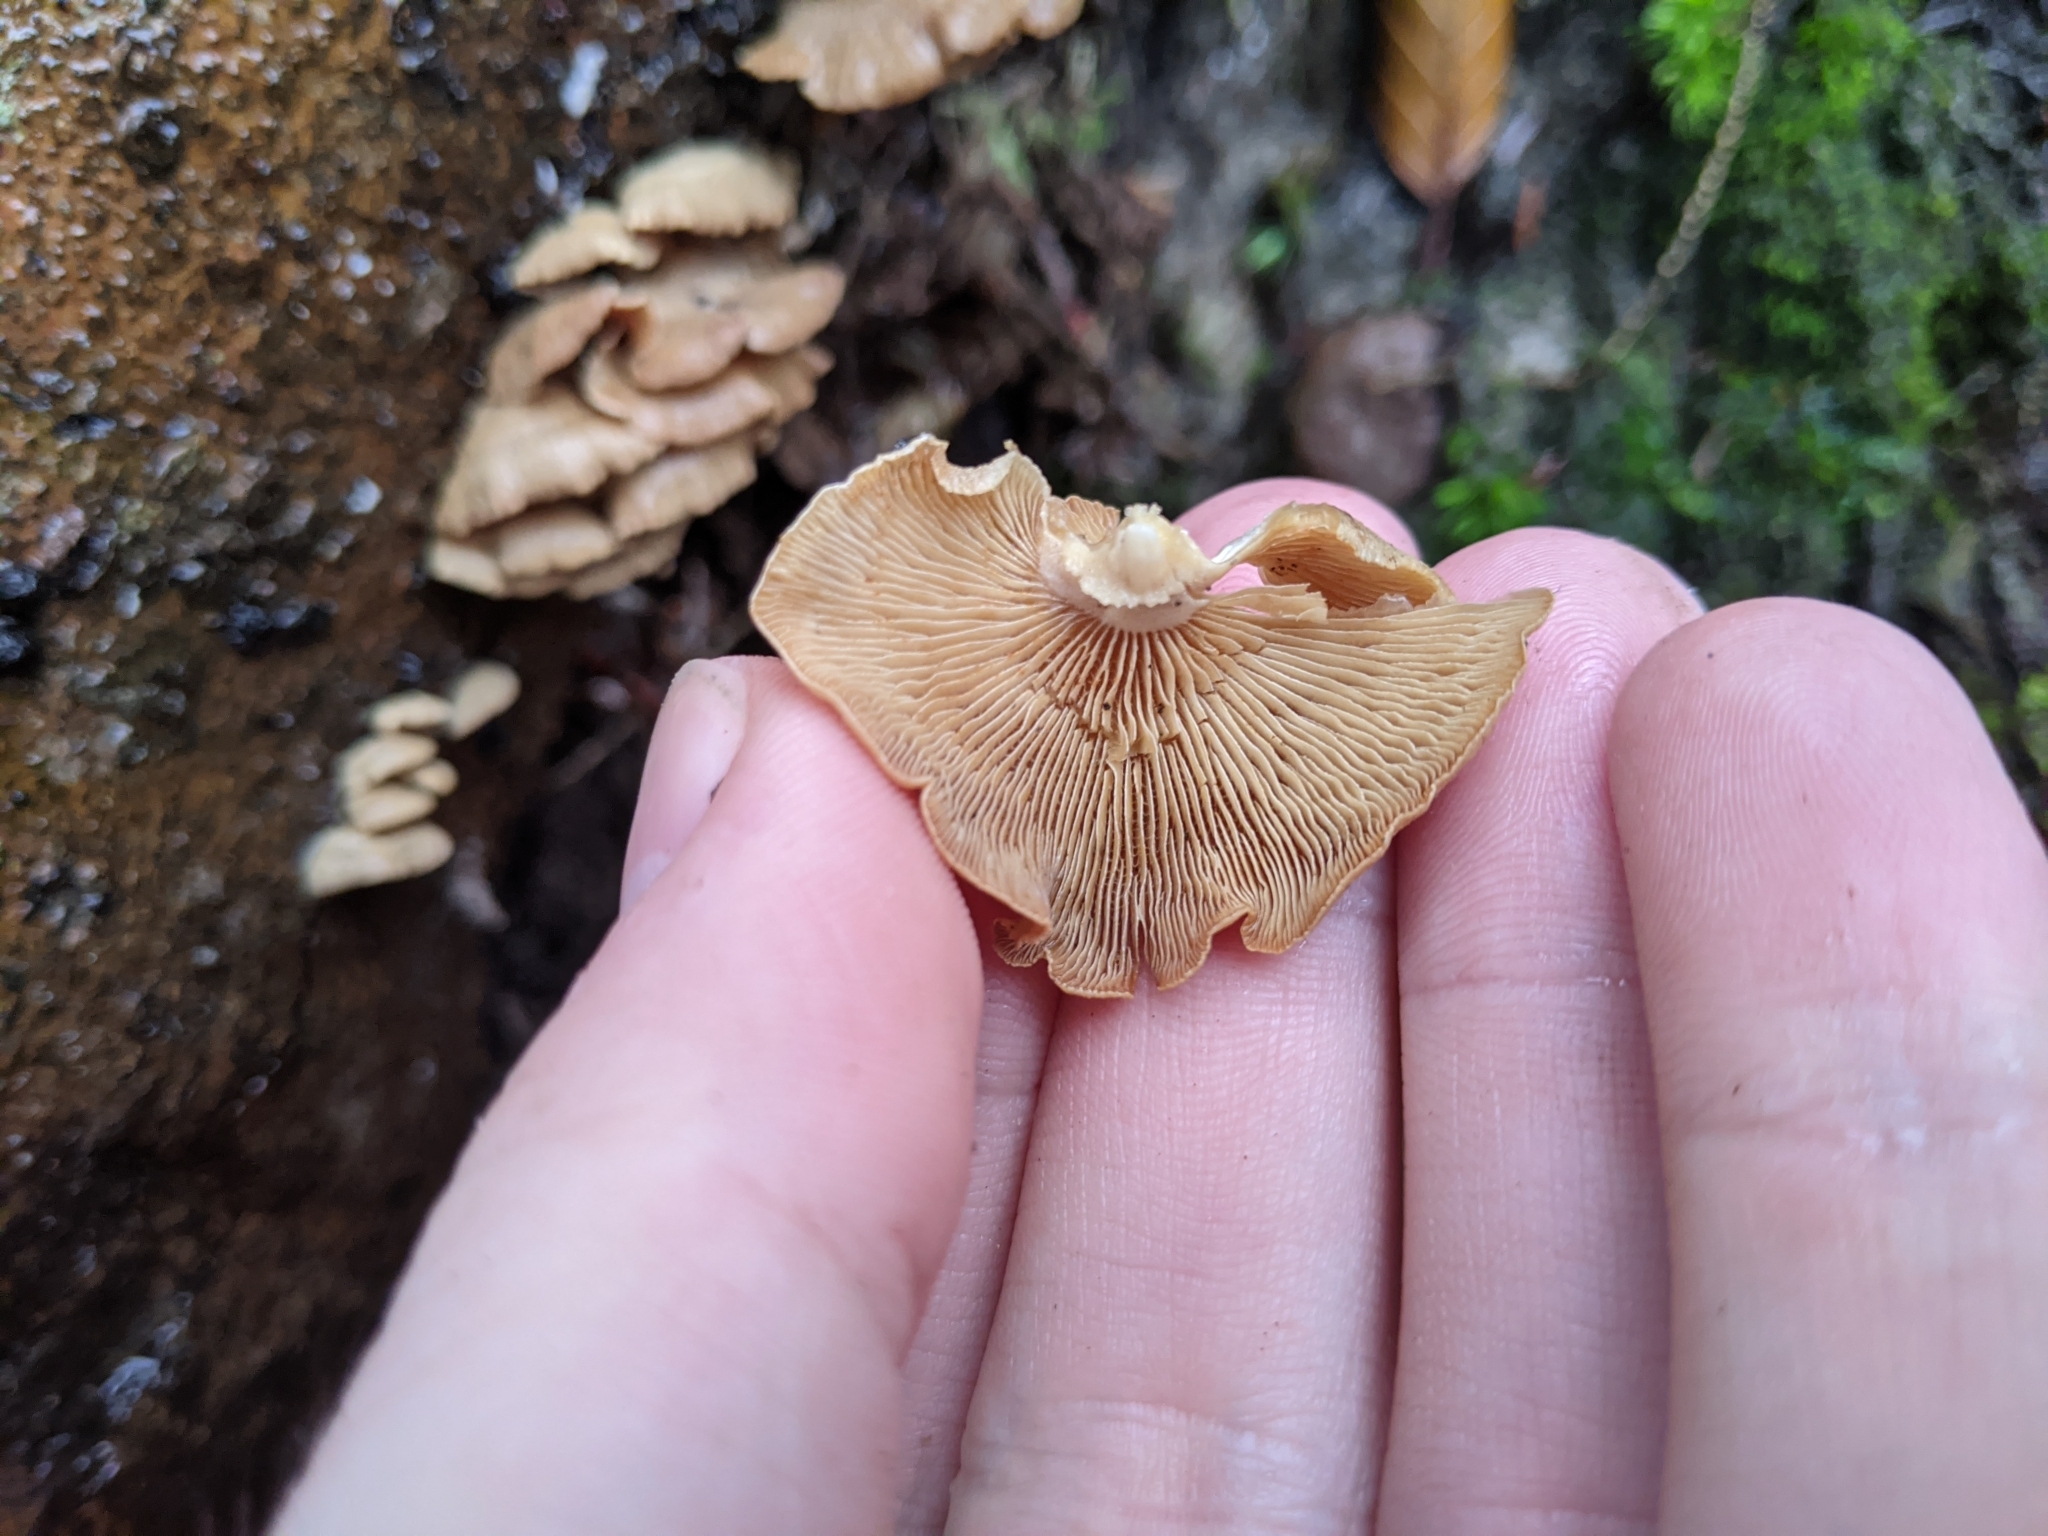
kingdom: Fungi
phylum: Basidiomycota
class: Agaricomycetes
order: Agaricales
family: Mycenaceae
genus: Panellus
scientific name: Panellus stipticus
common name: Bitter oysterling
